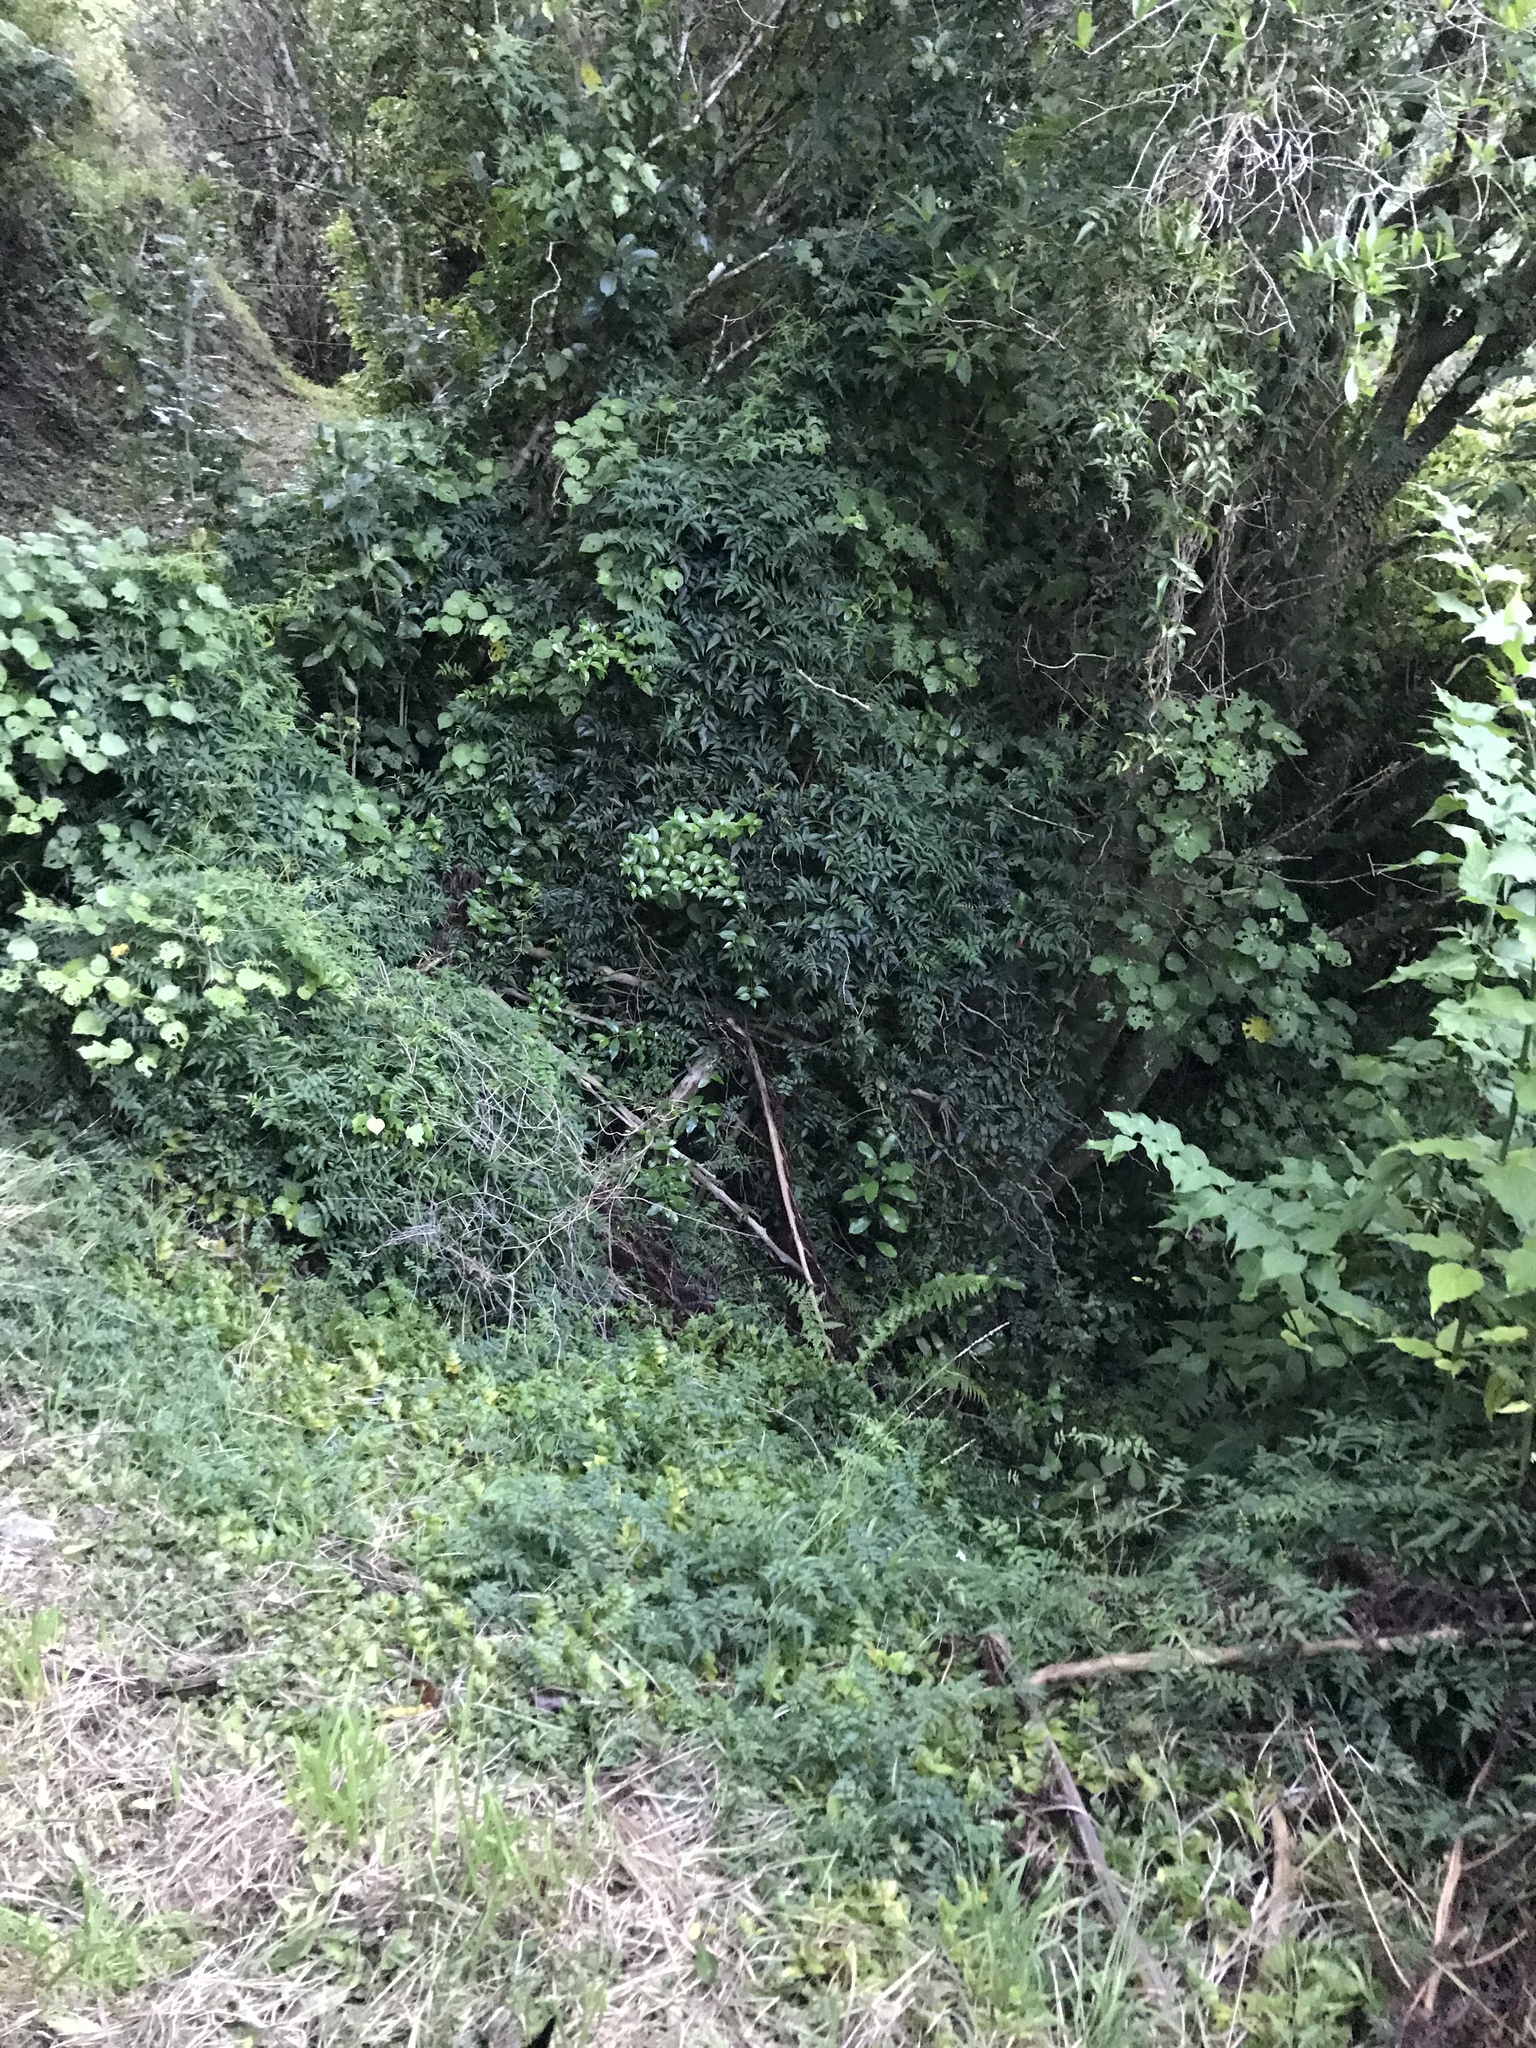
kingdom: Plantae
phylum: Tracheophyta
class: Magnoliopsida
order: Lamiales
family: Oleaceae
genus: Jasminum
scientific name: Jasminum polyanthum
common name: Pink jasmine
